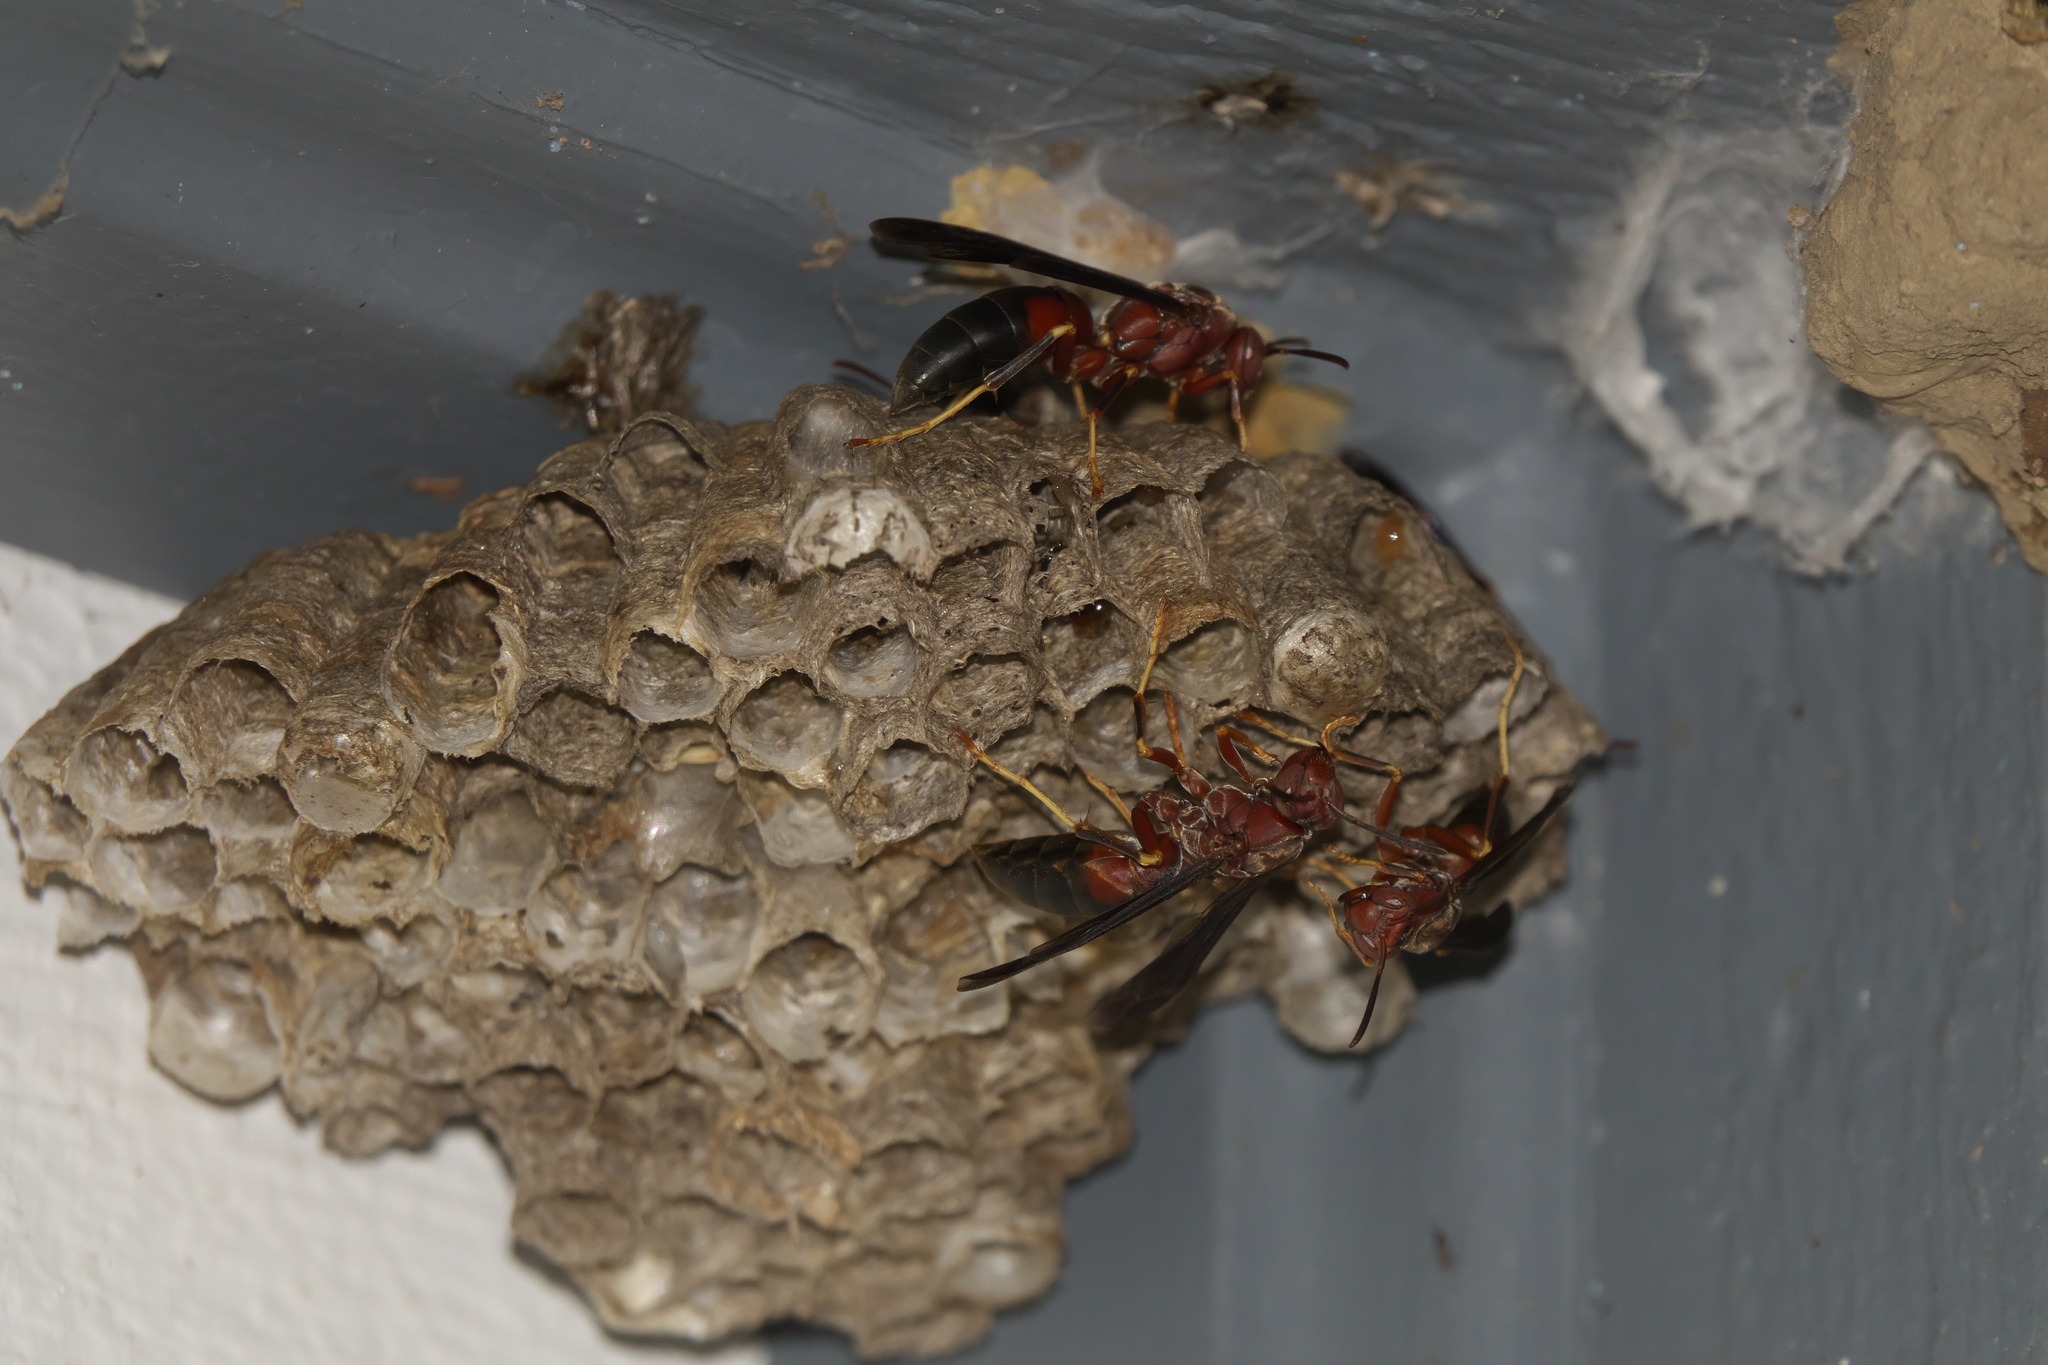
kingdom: Animalia
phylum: Arthropoda
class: Insecta
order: Hymenoptera
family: Eumenidae
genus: Polistes
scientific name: Polistes metricus
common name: Metric paper wasp
